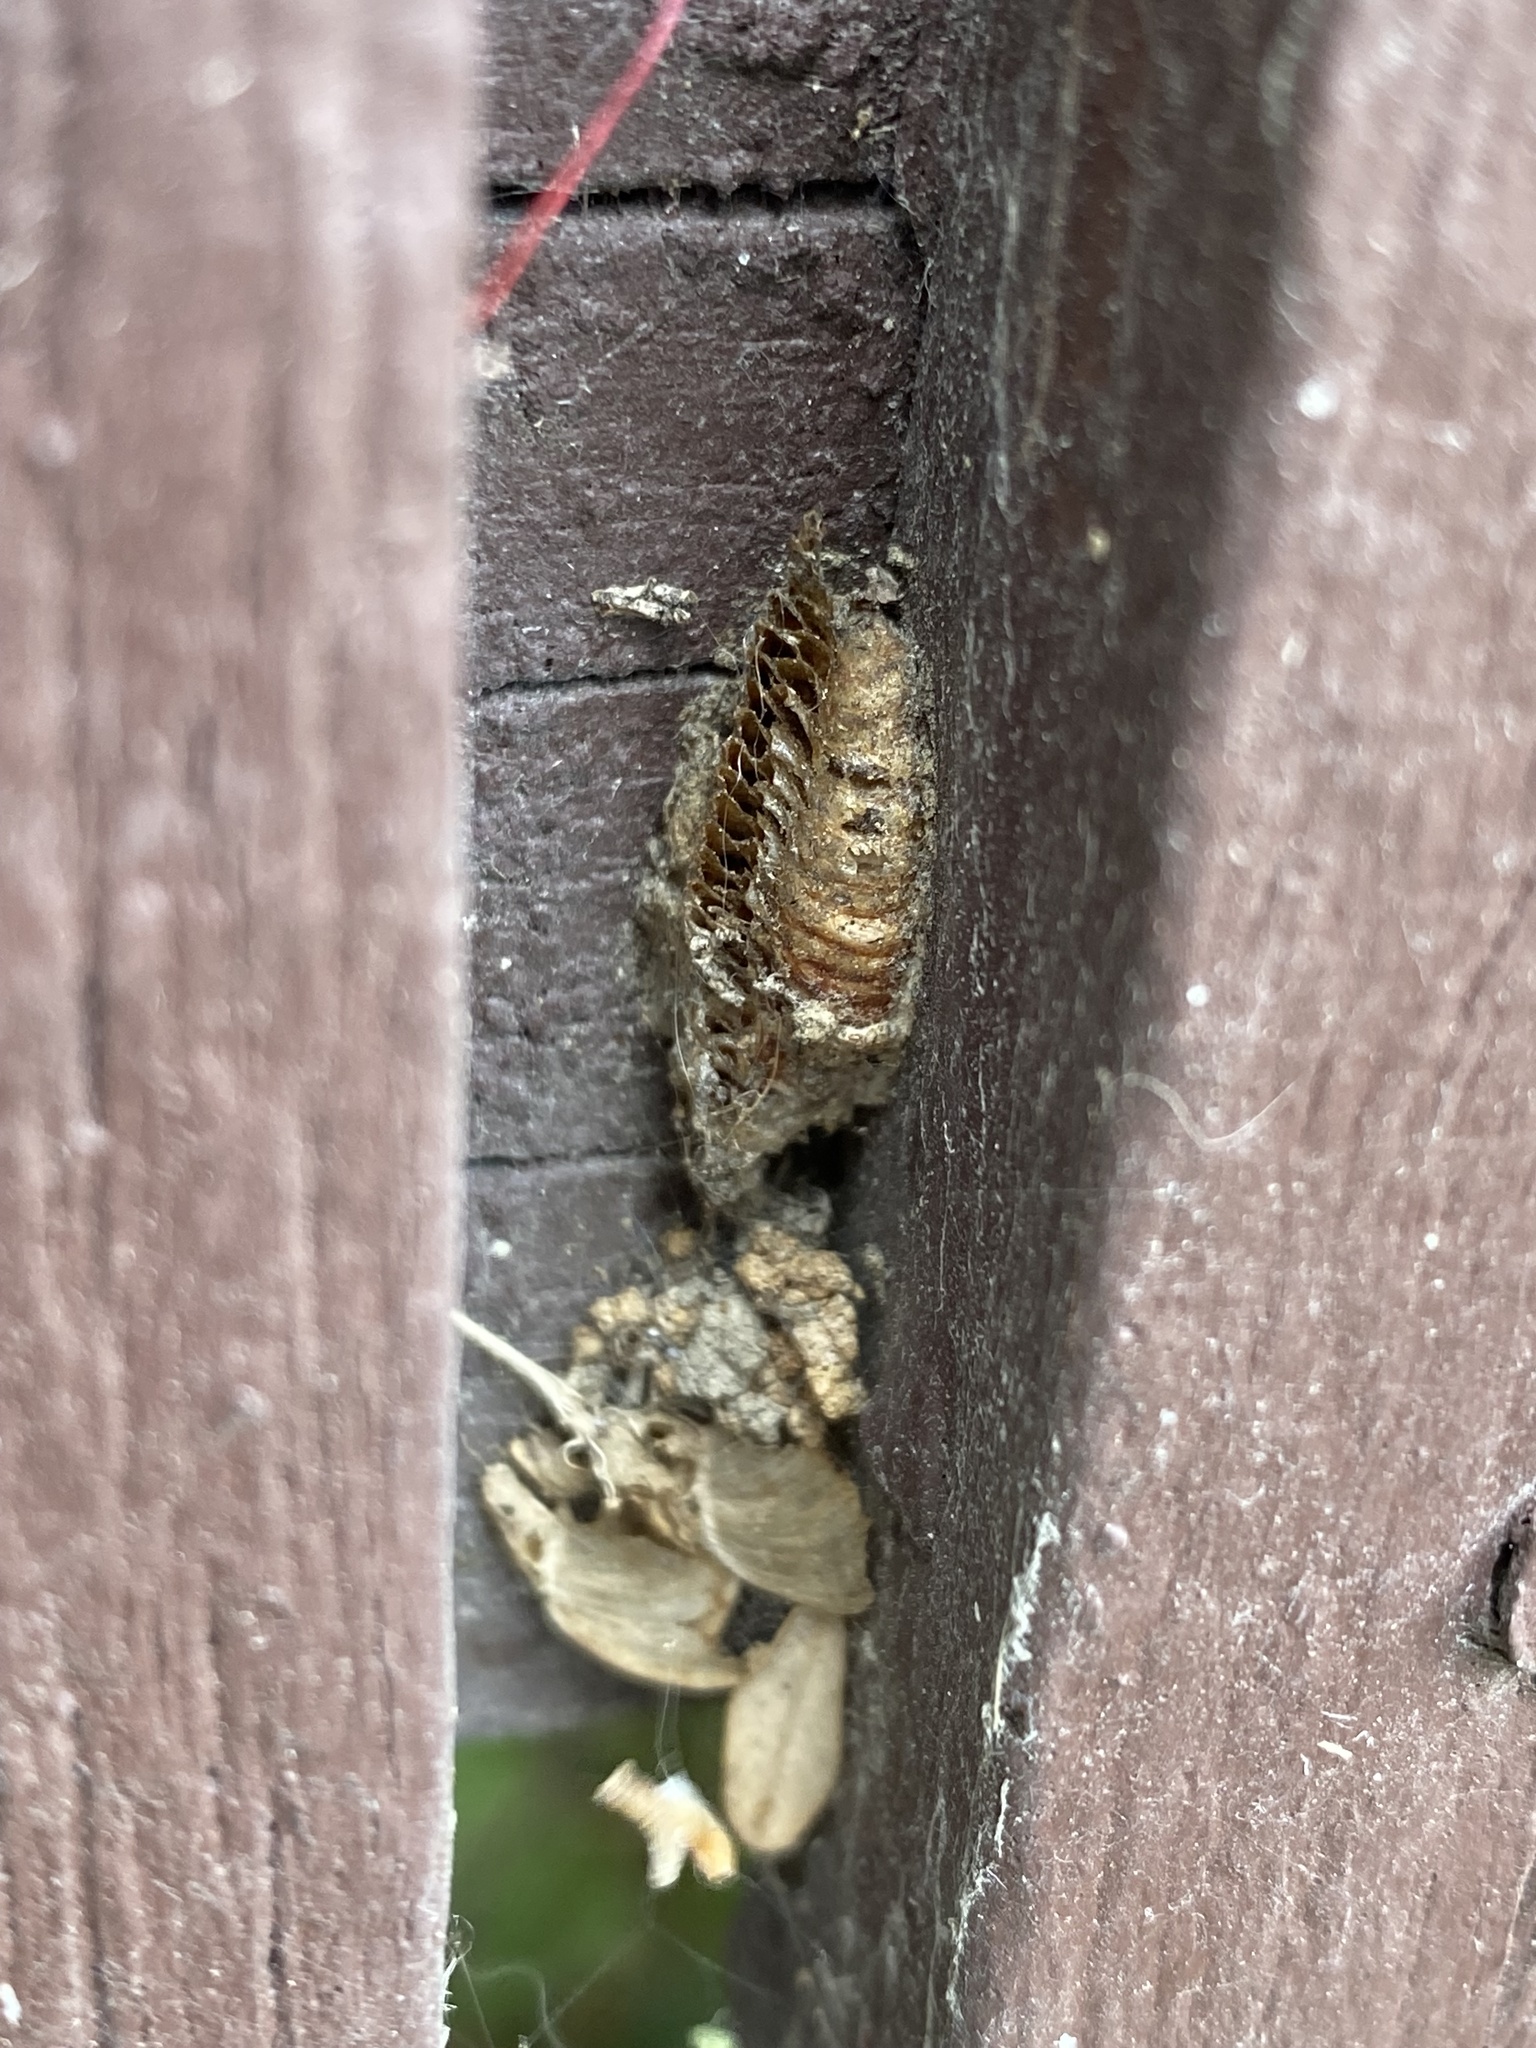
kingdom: Animalia
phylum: Arthropoda
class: Insecta
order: Mantodea
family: Miomantidae
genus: Miomantis
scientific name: Miomantis caffra
